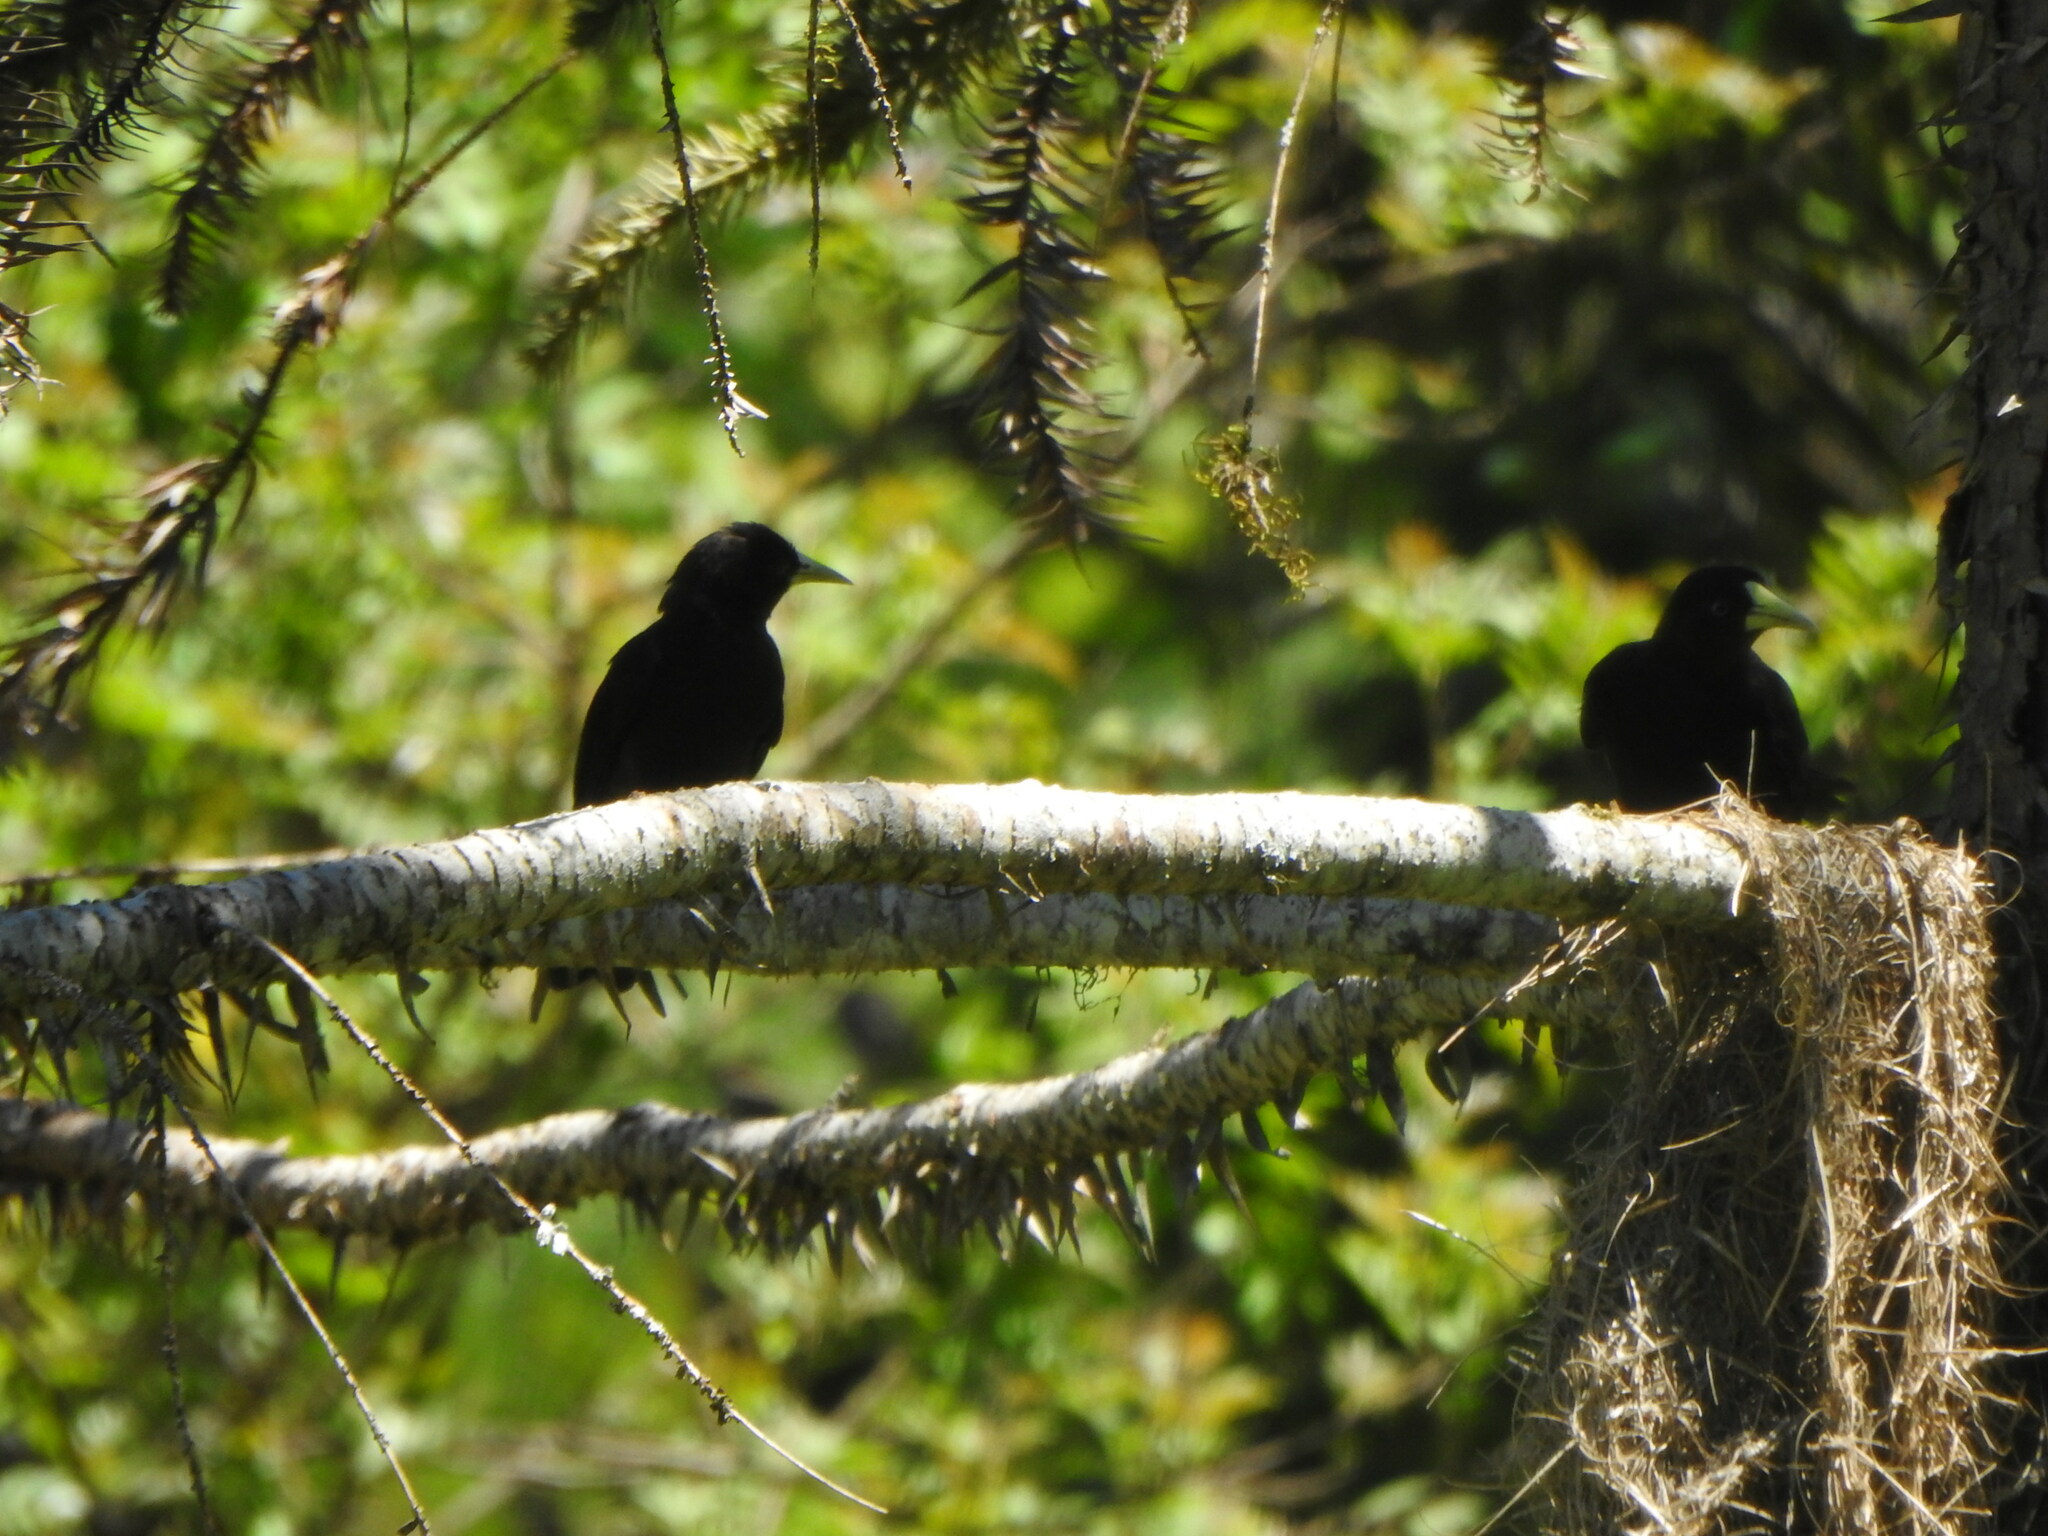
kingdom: Animalia
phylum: Chordata
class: Aves
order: Passeriformes
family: Icteridae
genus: Cacicus
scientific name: Cacicus haemorrhous
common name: Red-rumped cacique
